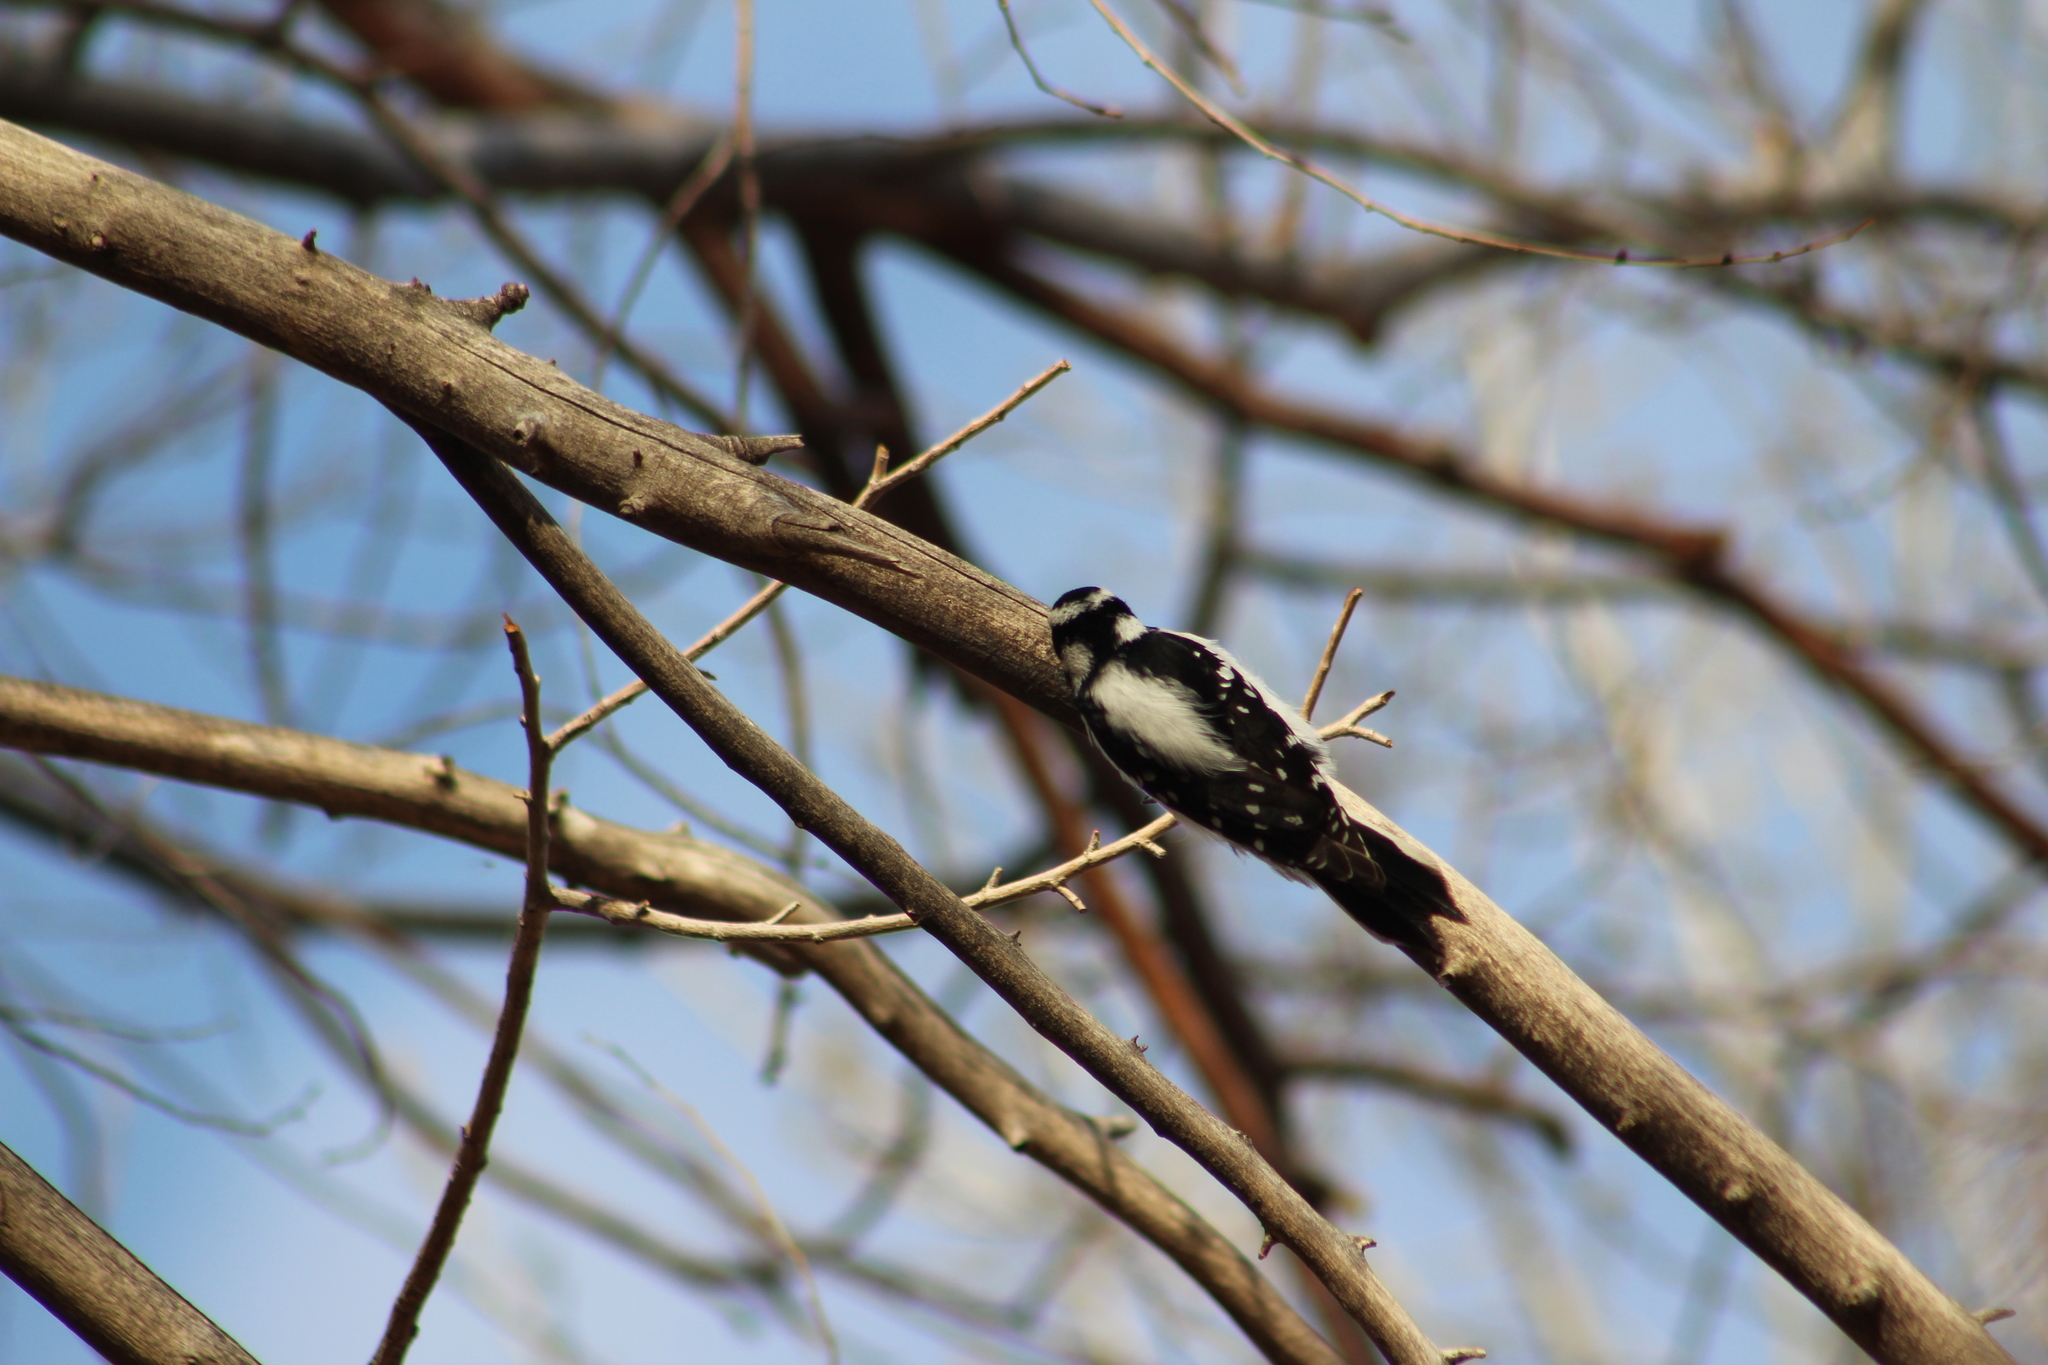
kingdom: Animalia
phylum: Chordata
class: Aves
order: Piciformes
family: Picidae
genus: Dryobates
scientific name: Dryobates pubescens
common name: Downy woodpecker
